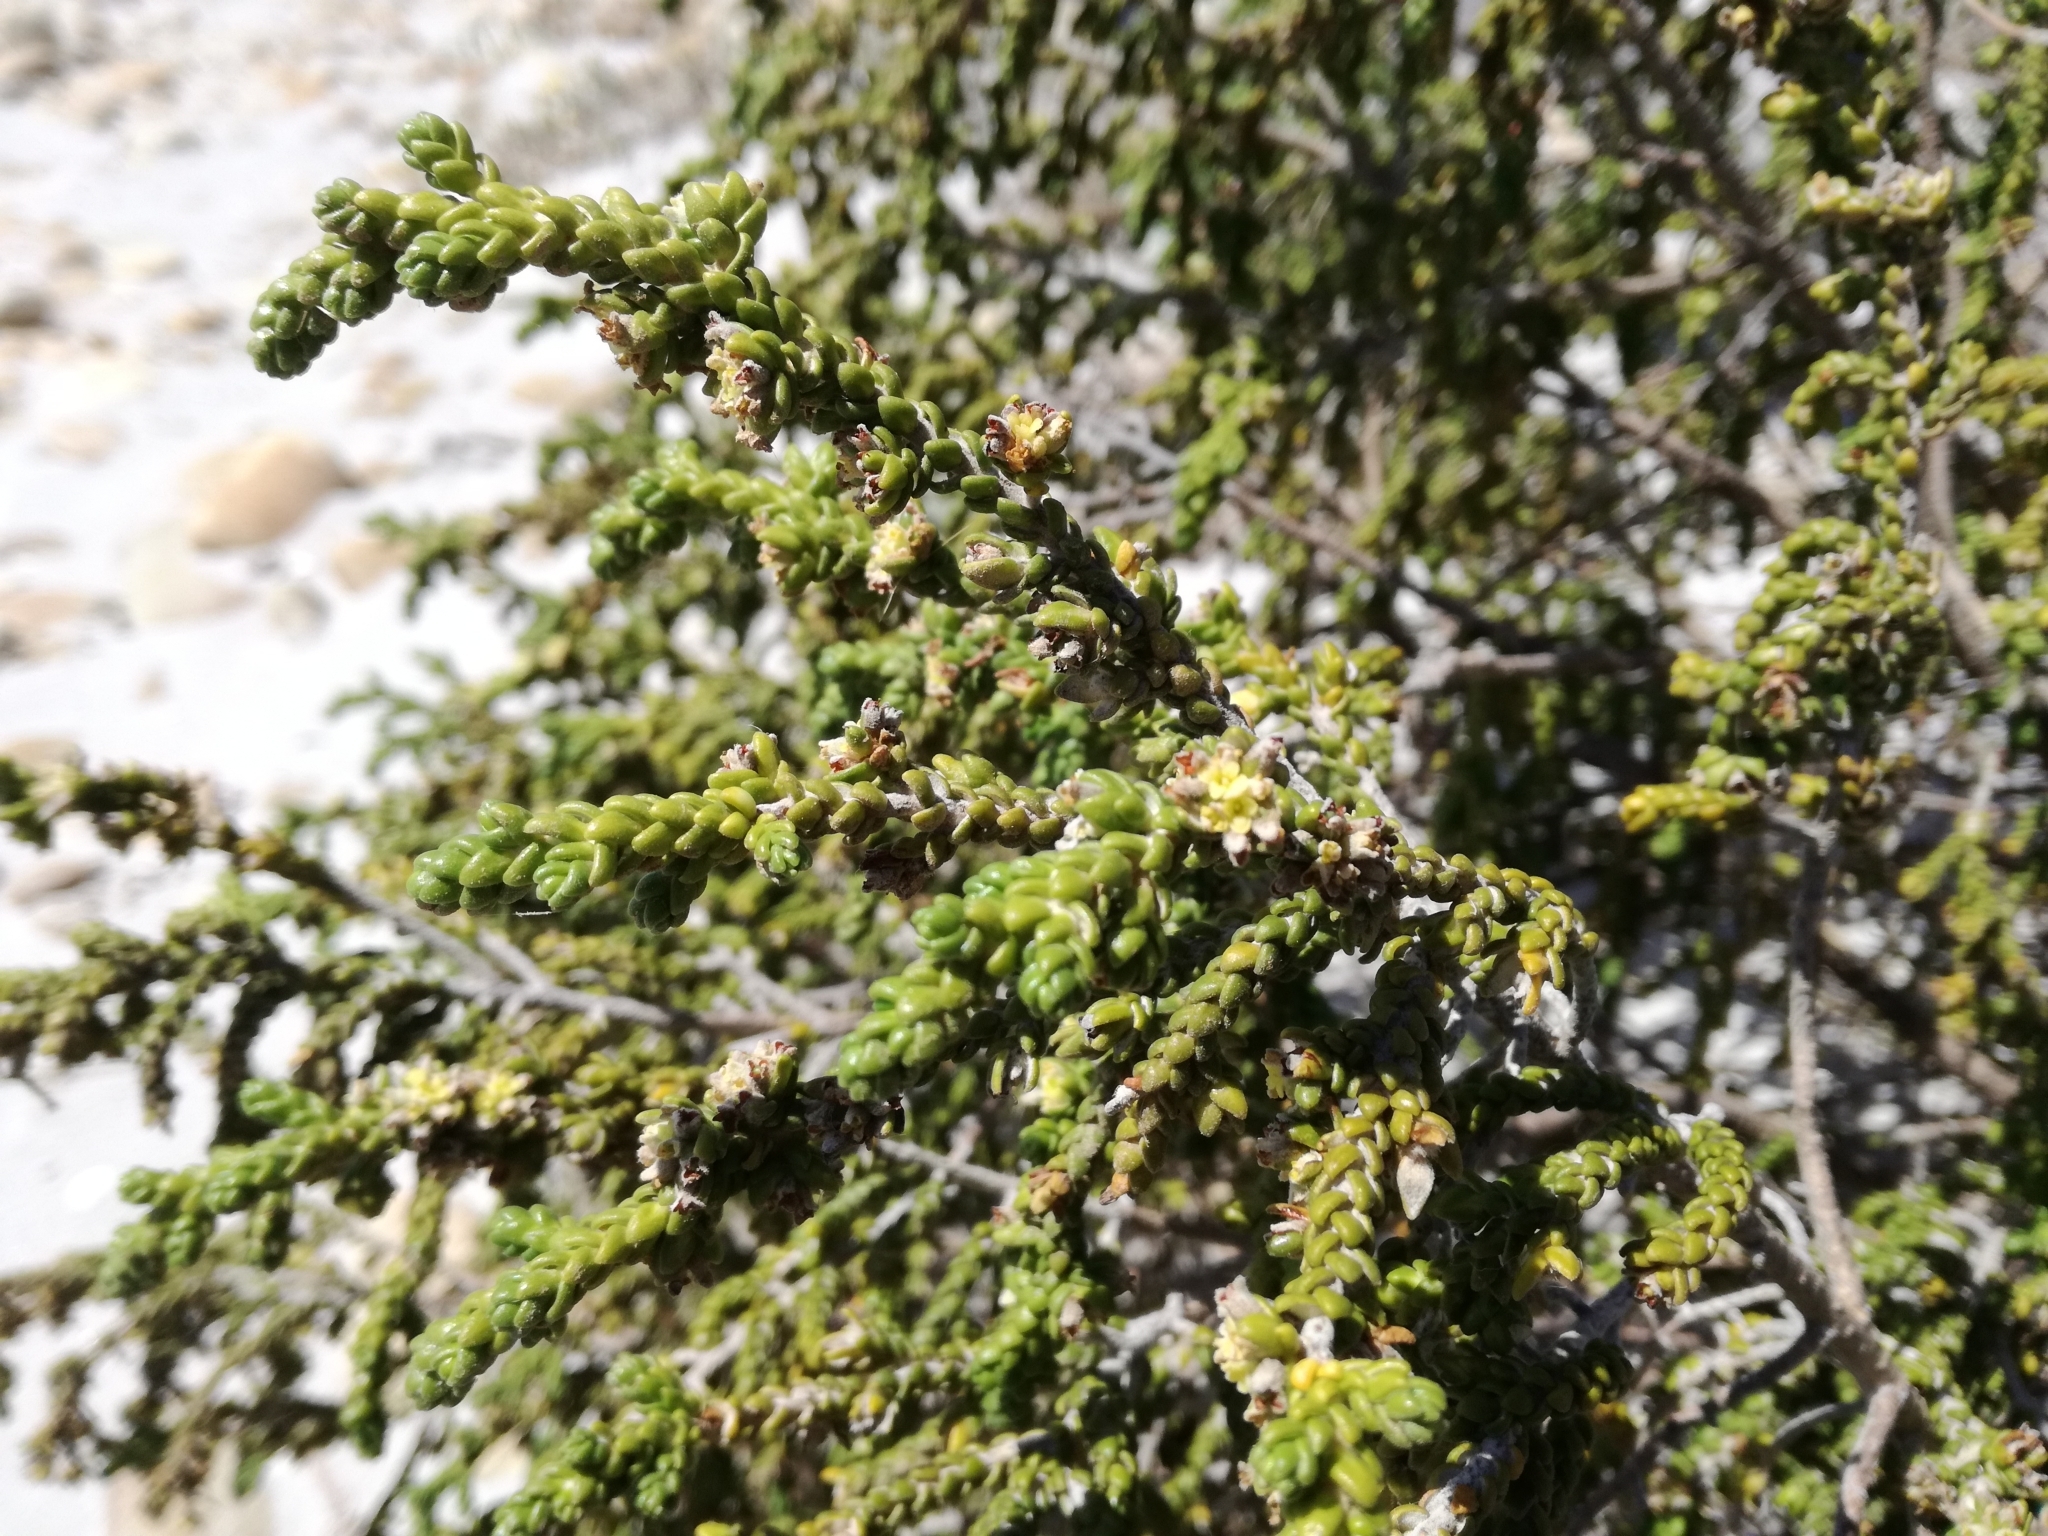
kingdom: Plantae
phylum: Tracheophyta
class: Magnoliopsida
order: Malvales
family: Thymelaeaceae
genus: Thymelaea
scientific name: Thymelaea hirsuta
